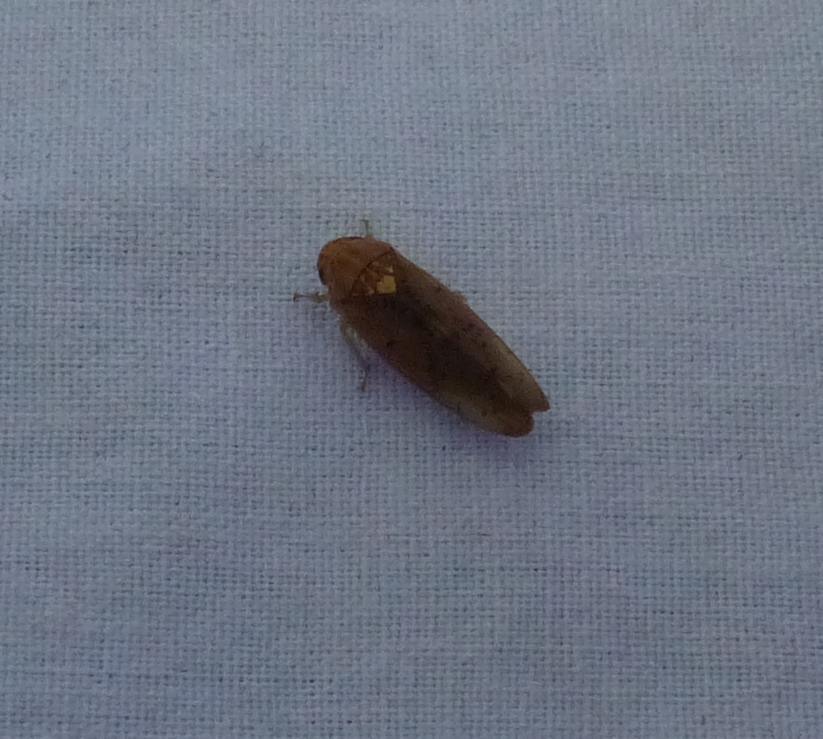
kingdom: Animalia
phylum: Arthropoda
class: Insecta
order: Hemiptera
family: Cicadellidae
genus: Ponana
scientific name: Ponana quadralaba
